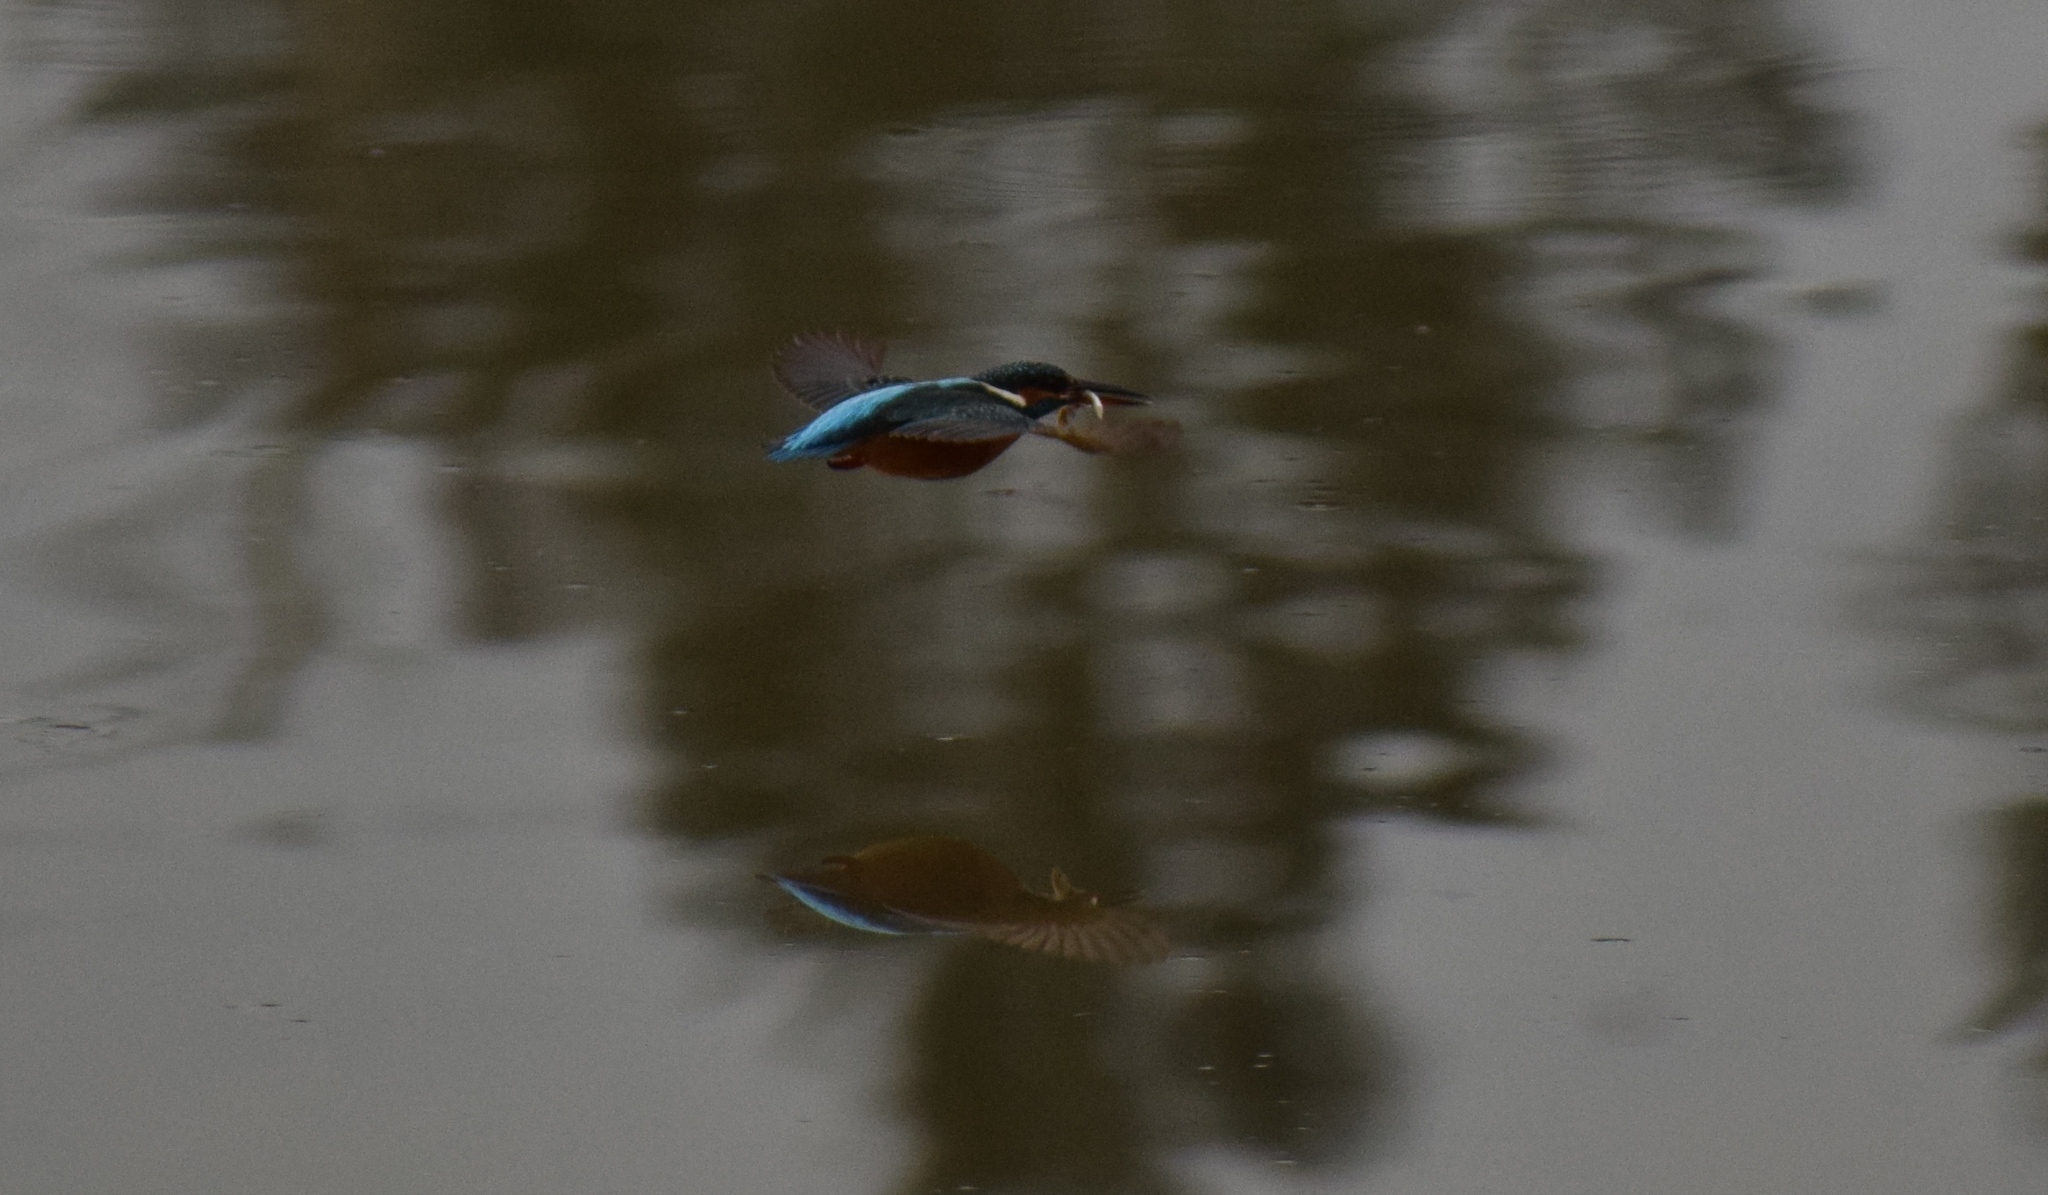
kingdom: Animalia
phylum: Chordata
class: Aves
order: Coraciiformes
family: Alcedinidae
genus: Alcedo
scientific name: Alcedo atthis
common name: Common kingfisher
